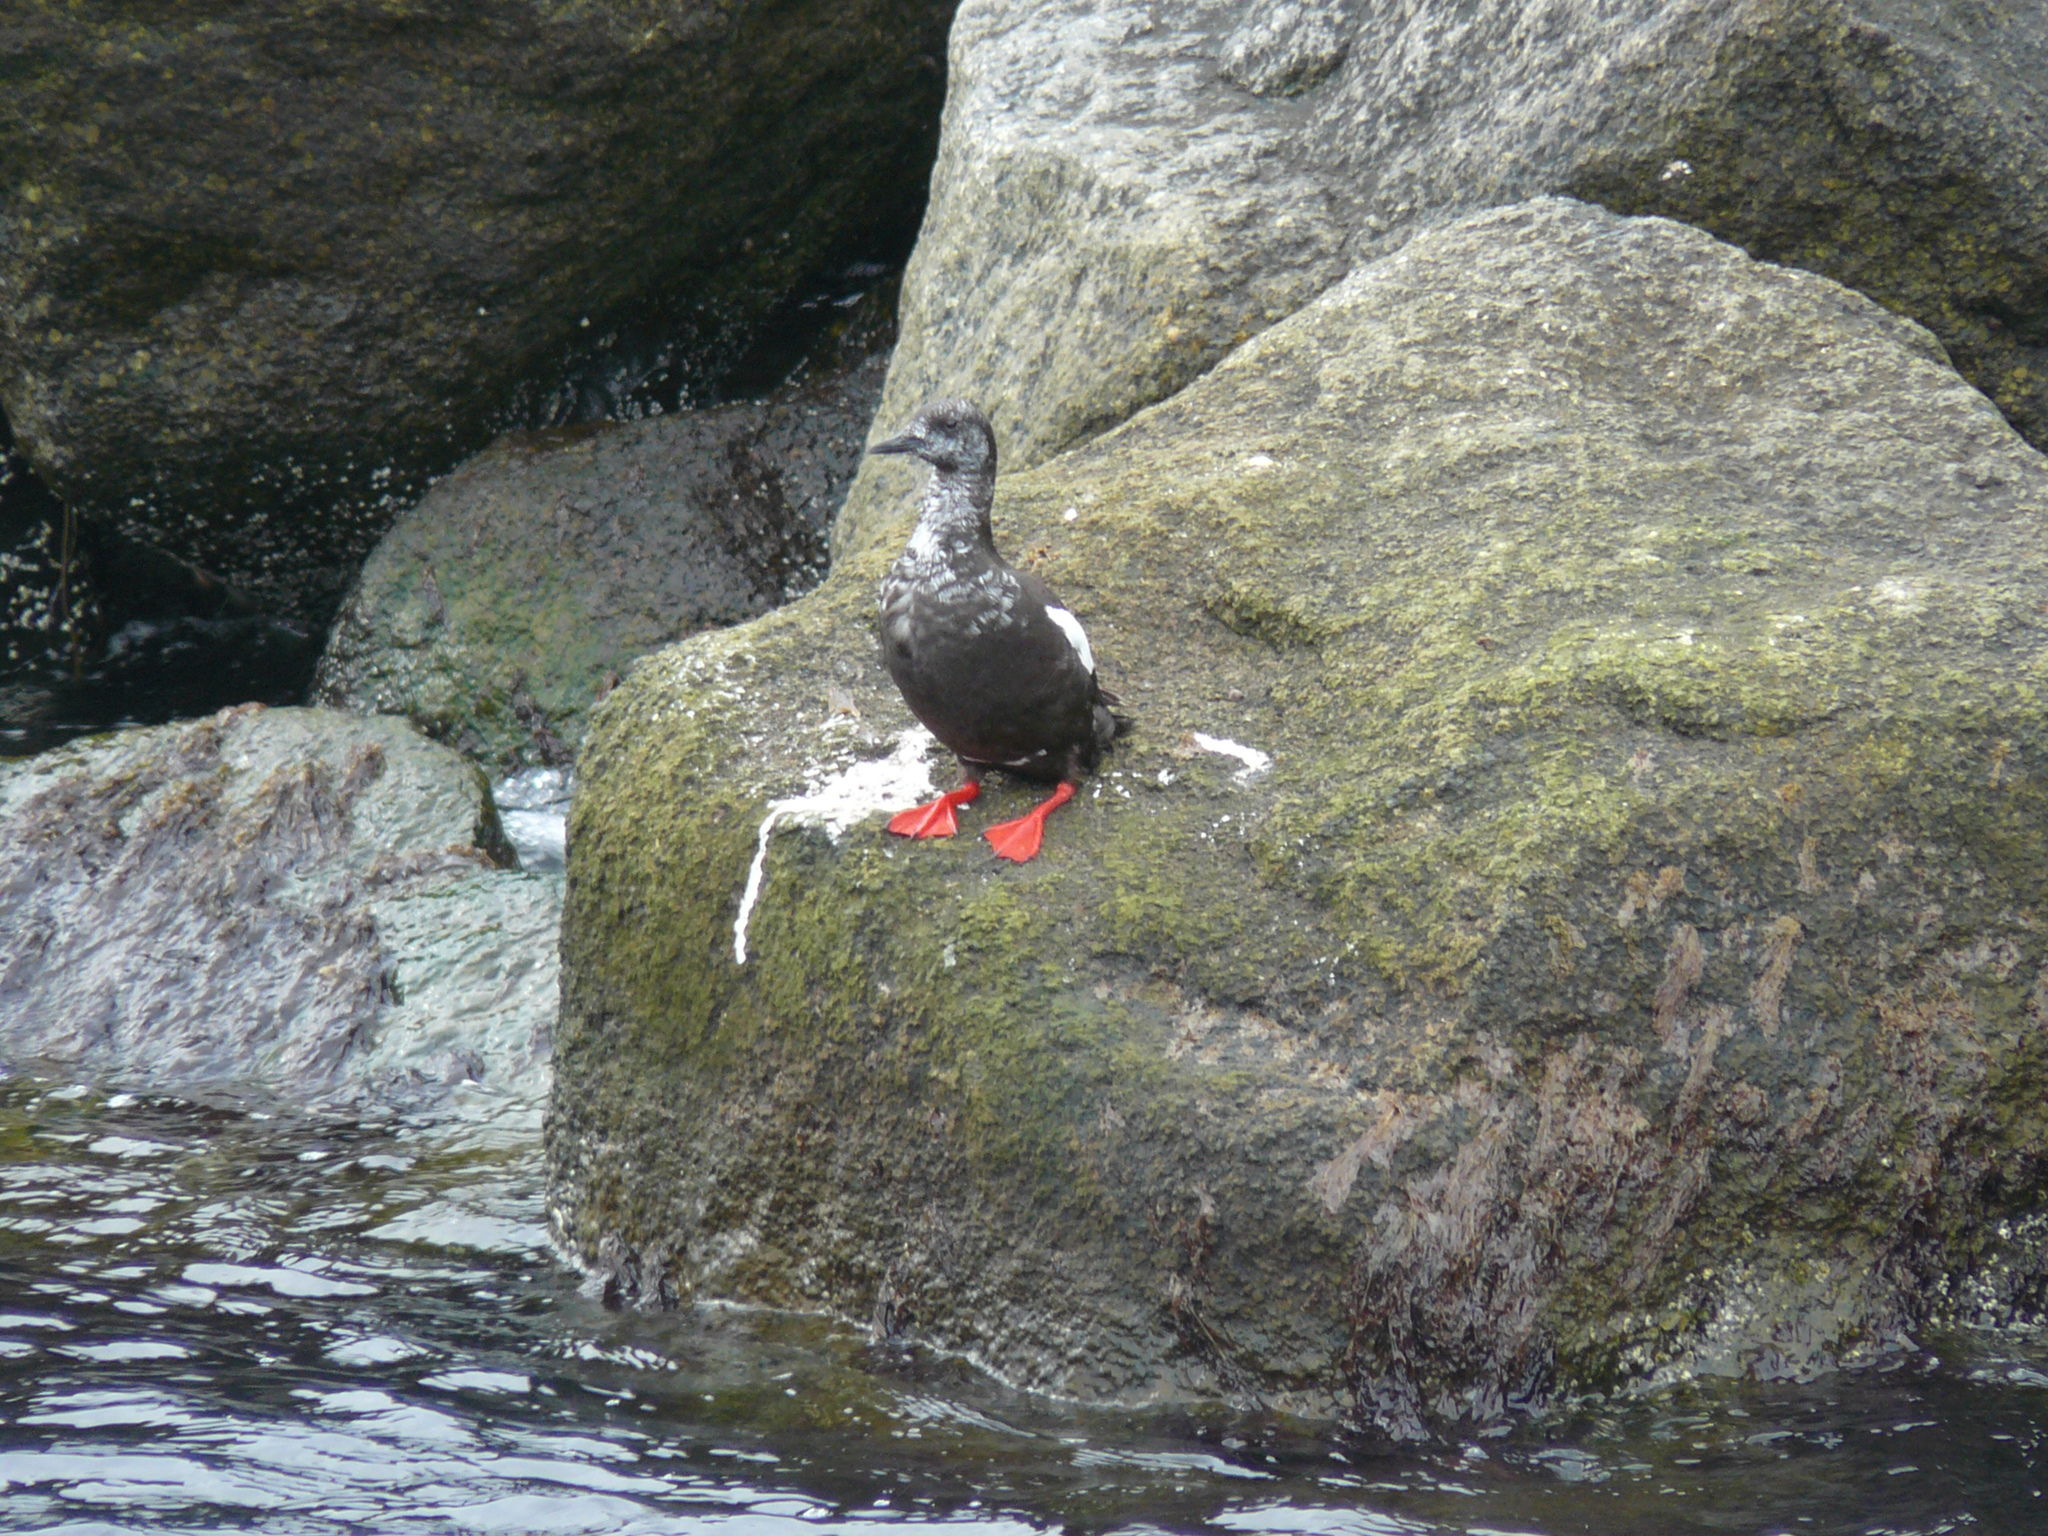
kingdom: Animalia
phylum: Chordata
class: Aves
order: Charadriiformes
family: Alcidae
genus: Cepphus
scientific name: Cepphus grylle
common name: Black guillemot
